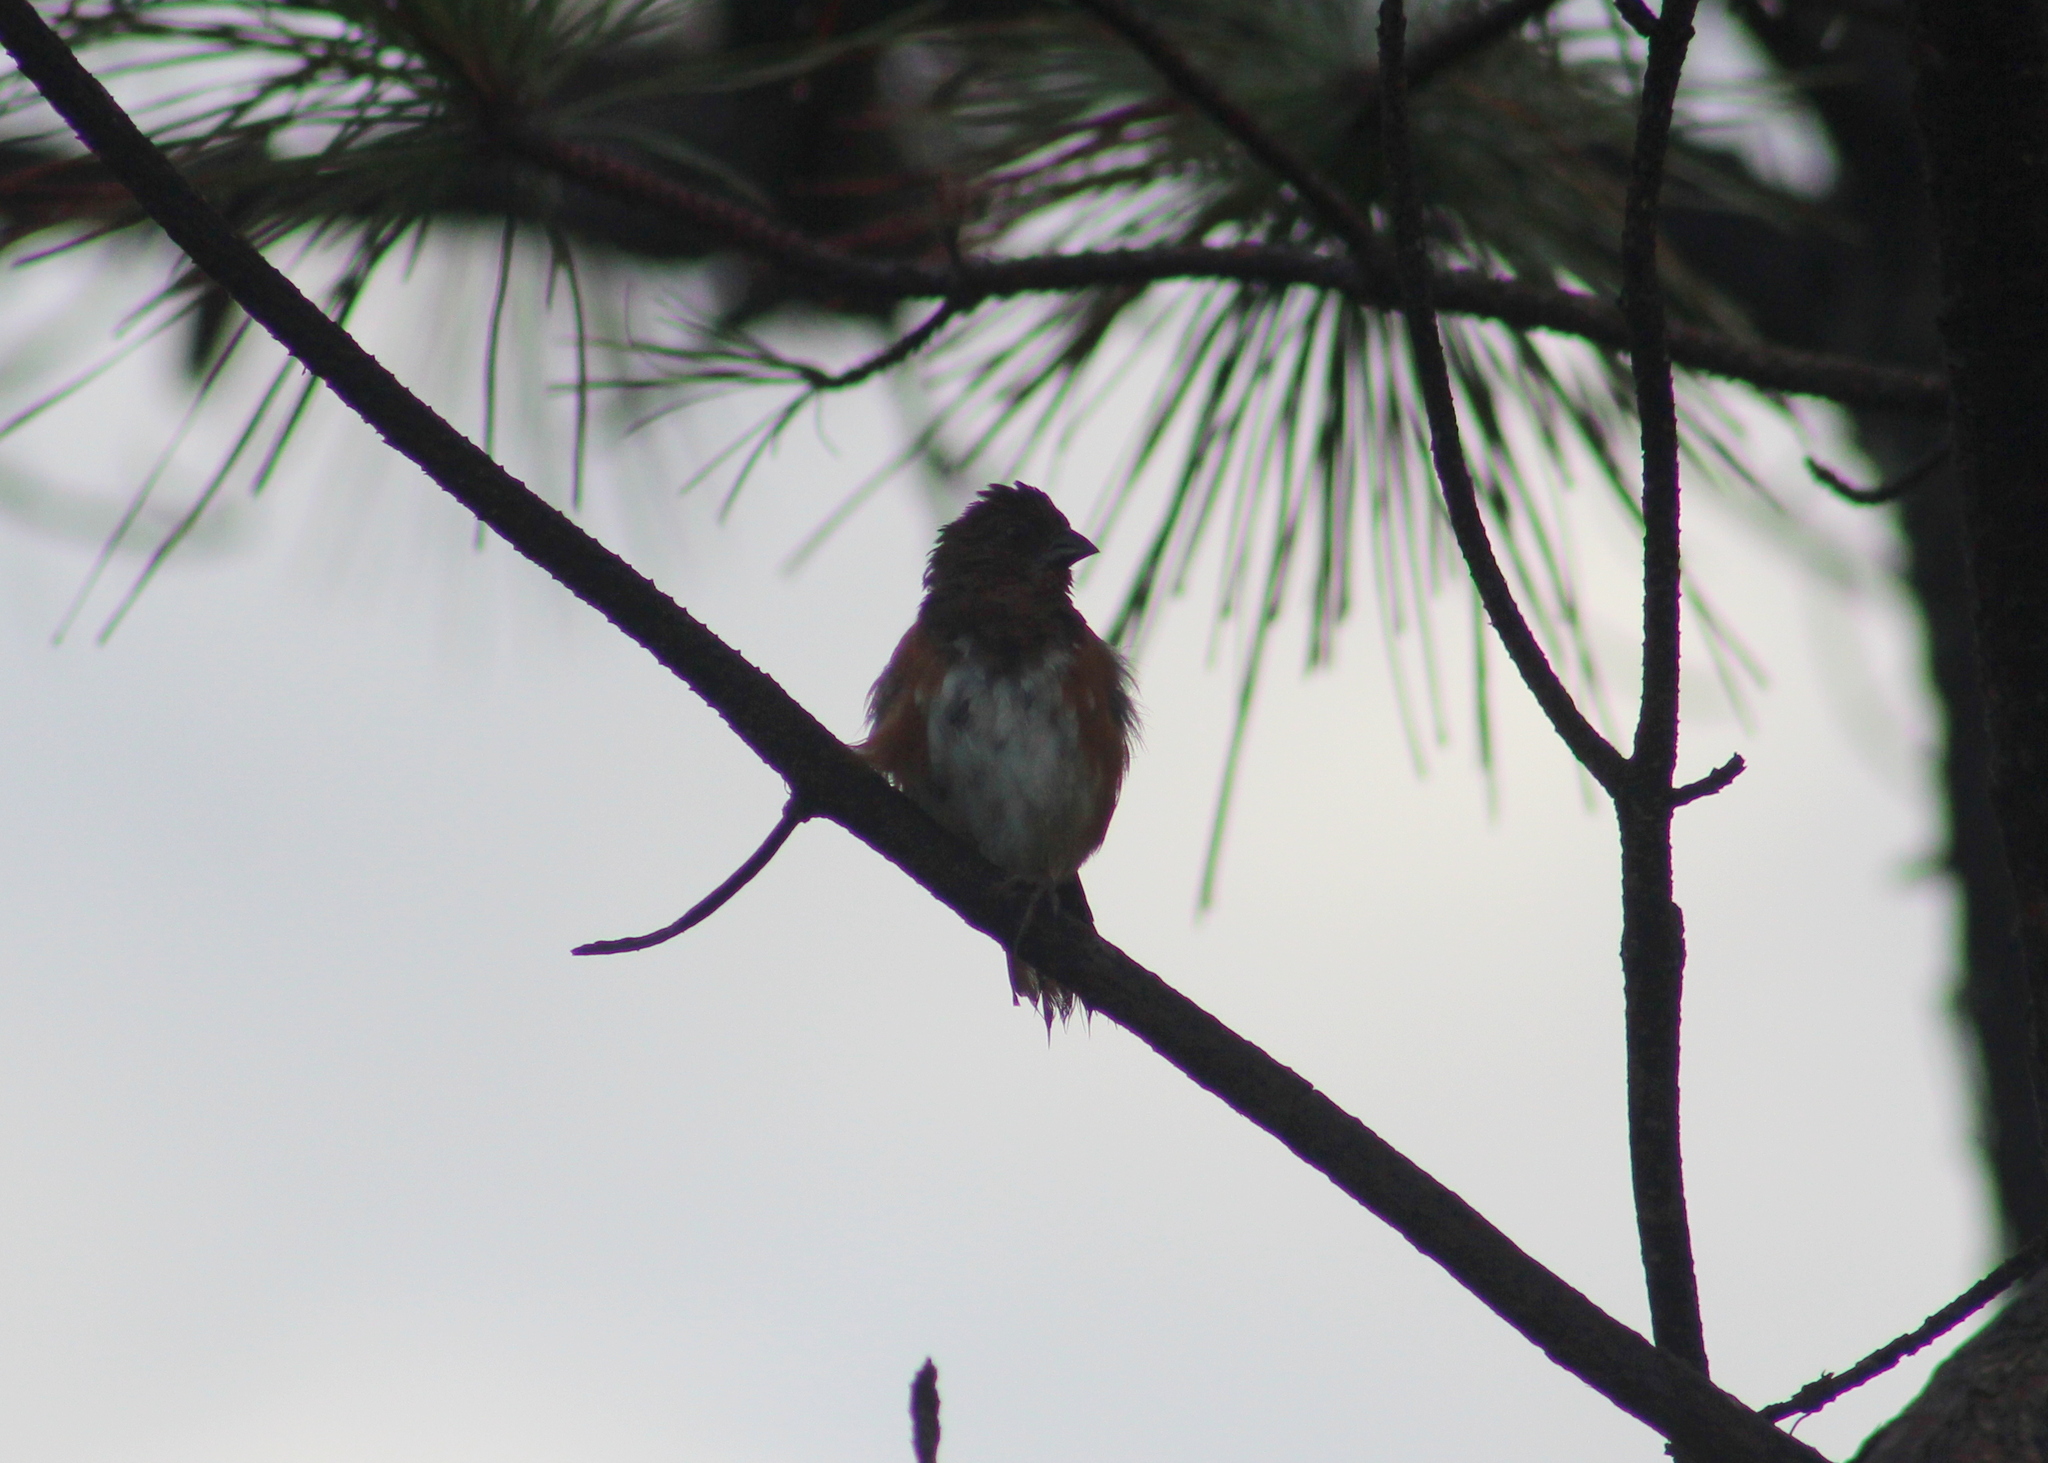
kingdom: Animalia
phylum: Chordata
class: Aves
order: Passeriformes
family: Passerellidae
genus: Pipilo
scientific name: Pipilo erythrophthalmus
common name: Eastern towhee
